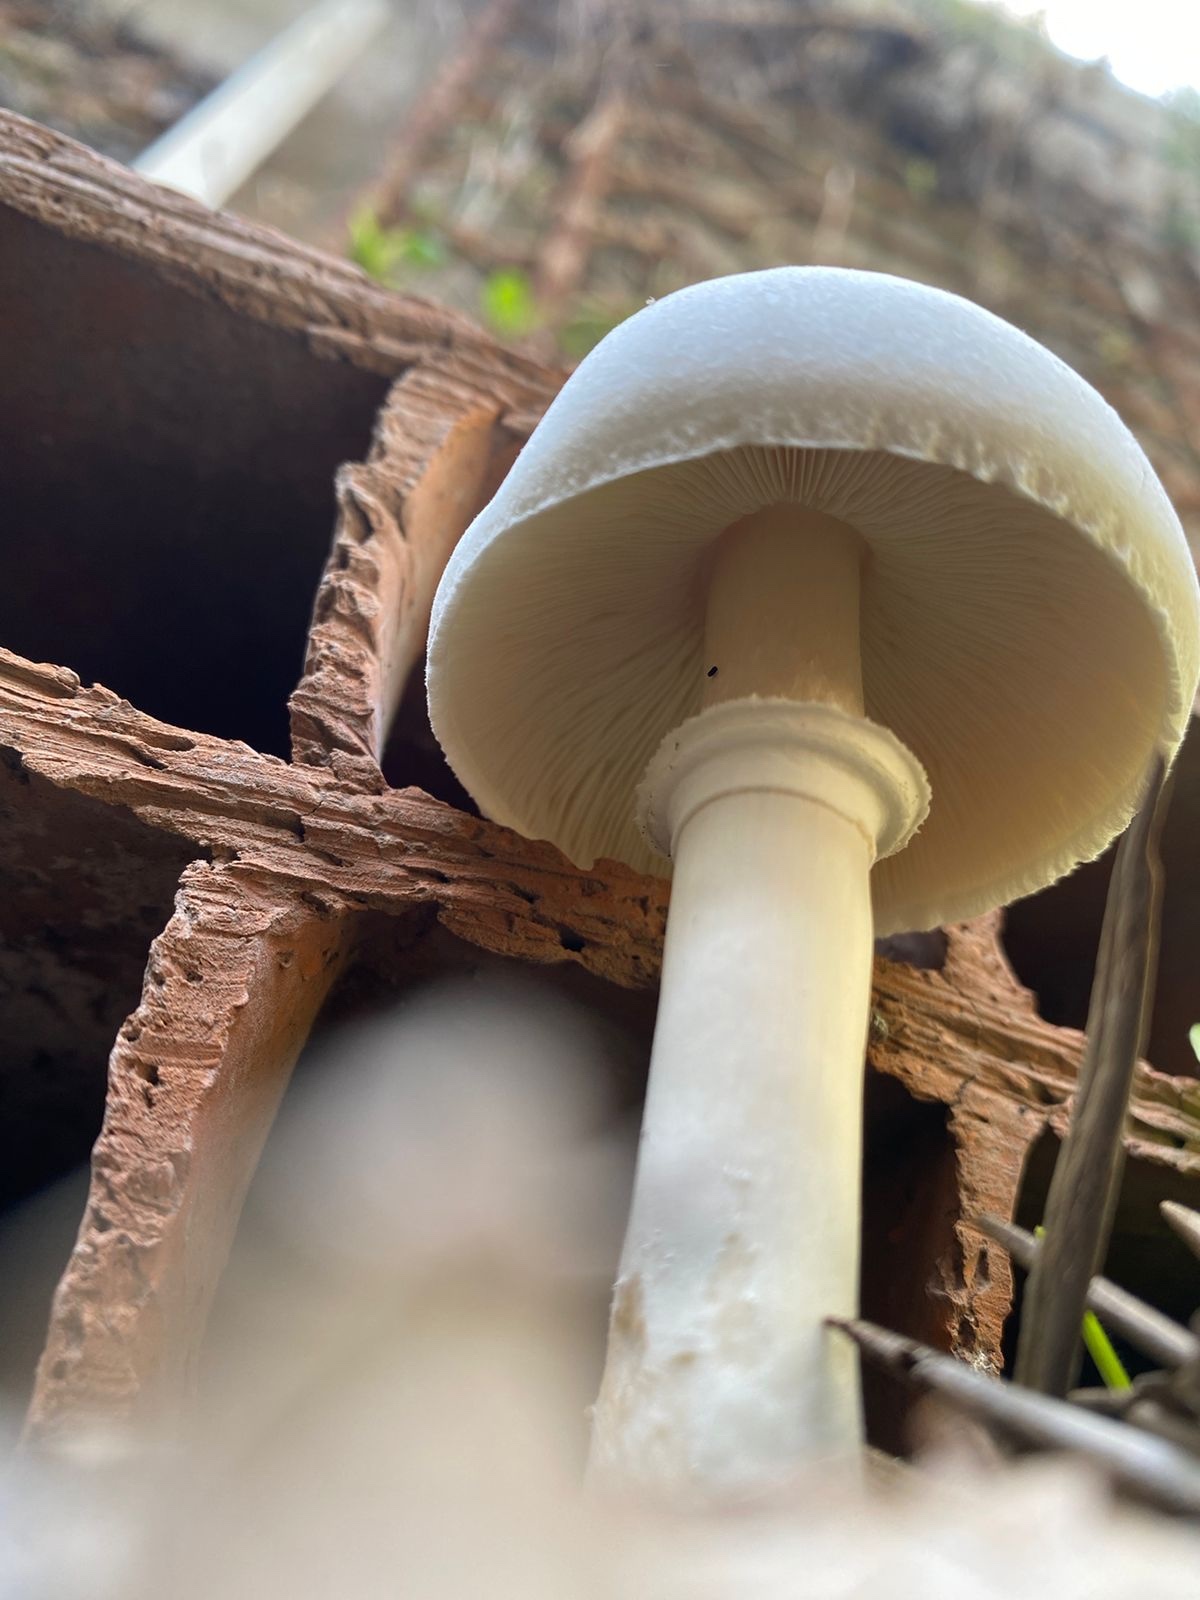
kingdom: Fungi
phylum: Basidiomycota
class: Agaricomycetes
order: Agaricales
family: Agaricaceae
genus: Leucoagaricus
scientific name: Leucoagaricus leucothites
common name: White dapperling
